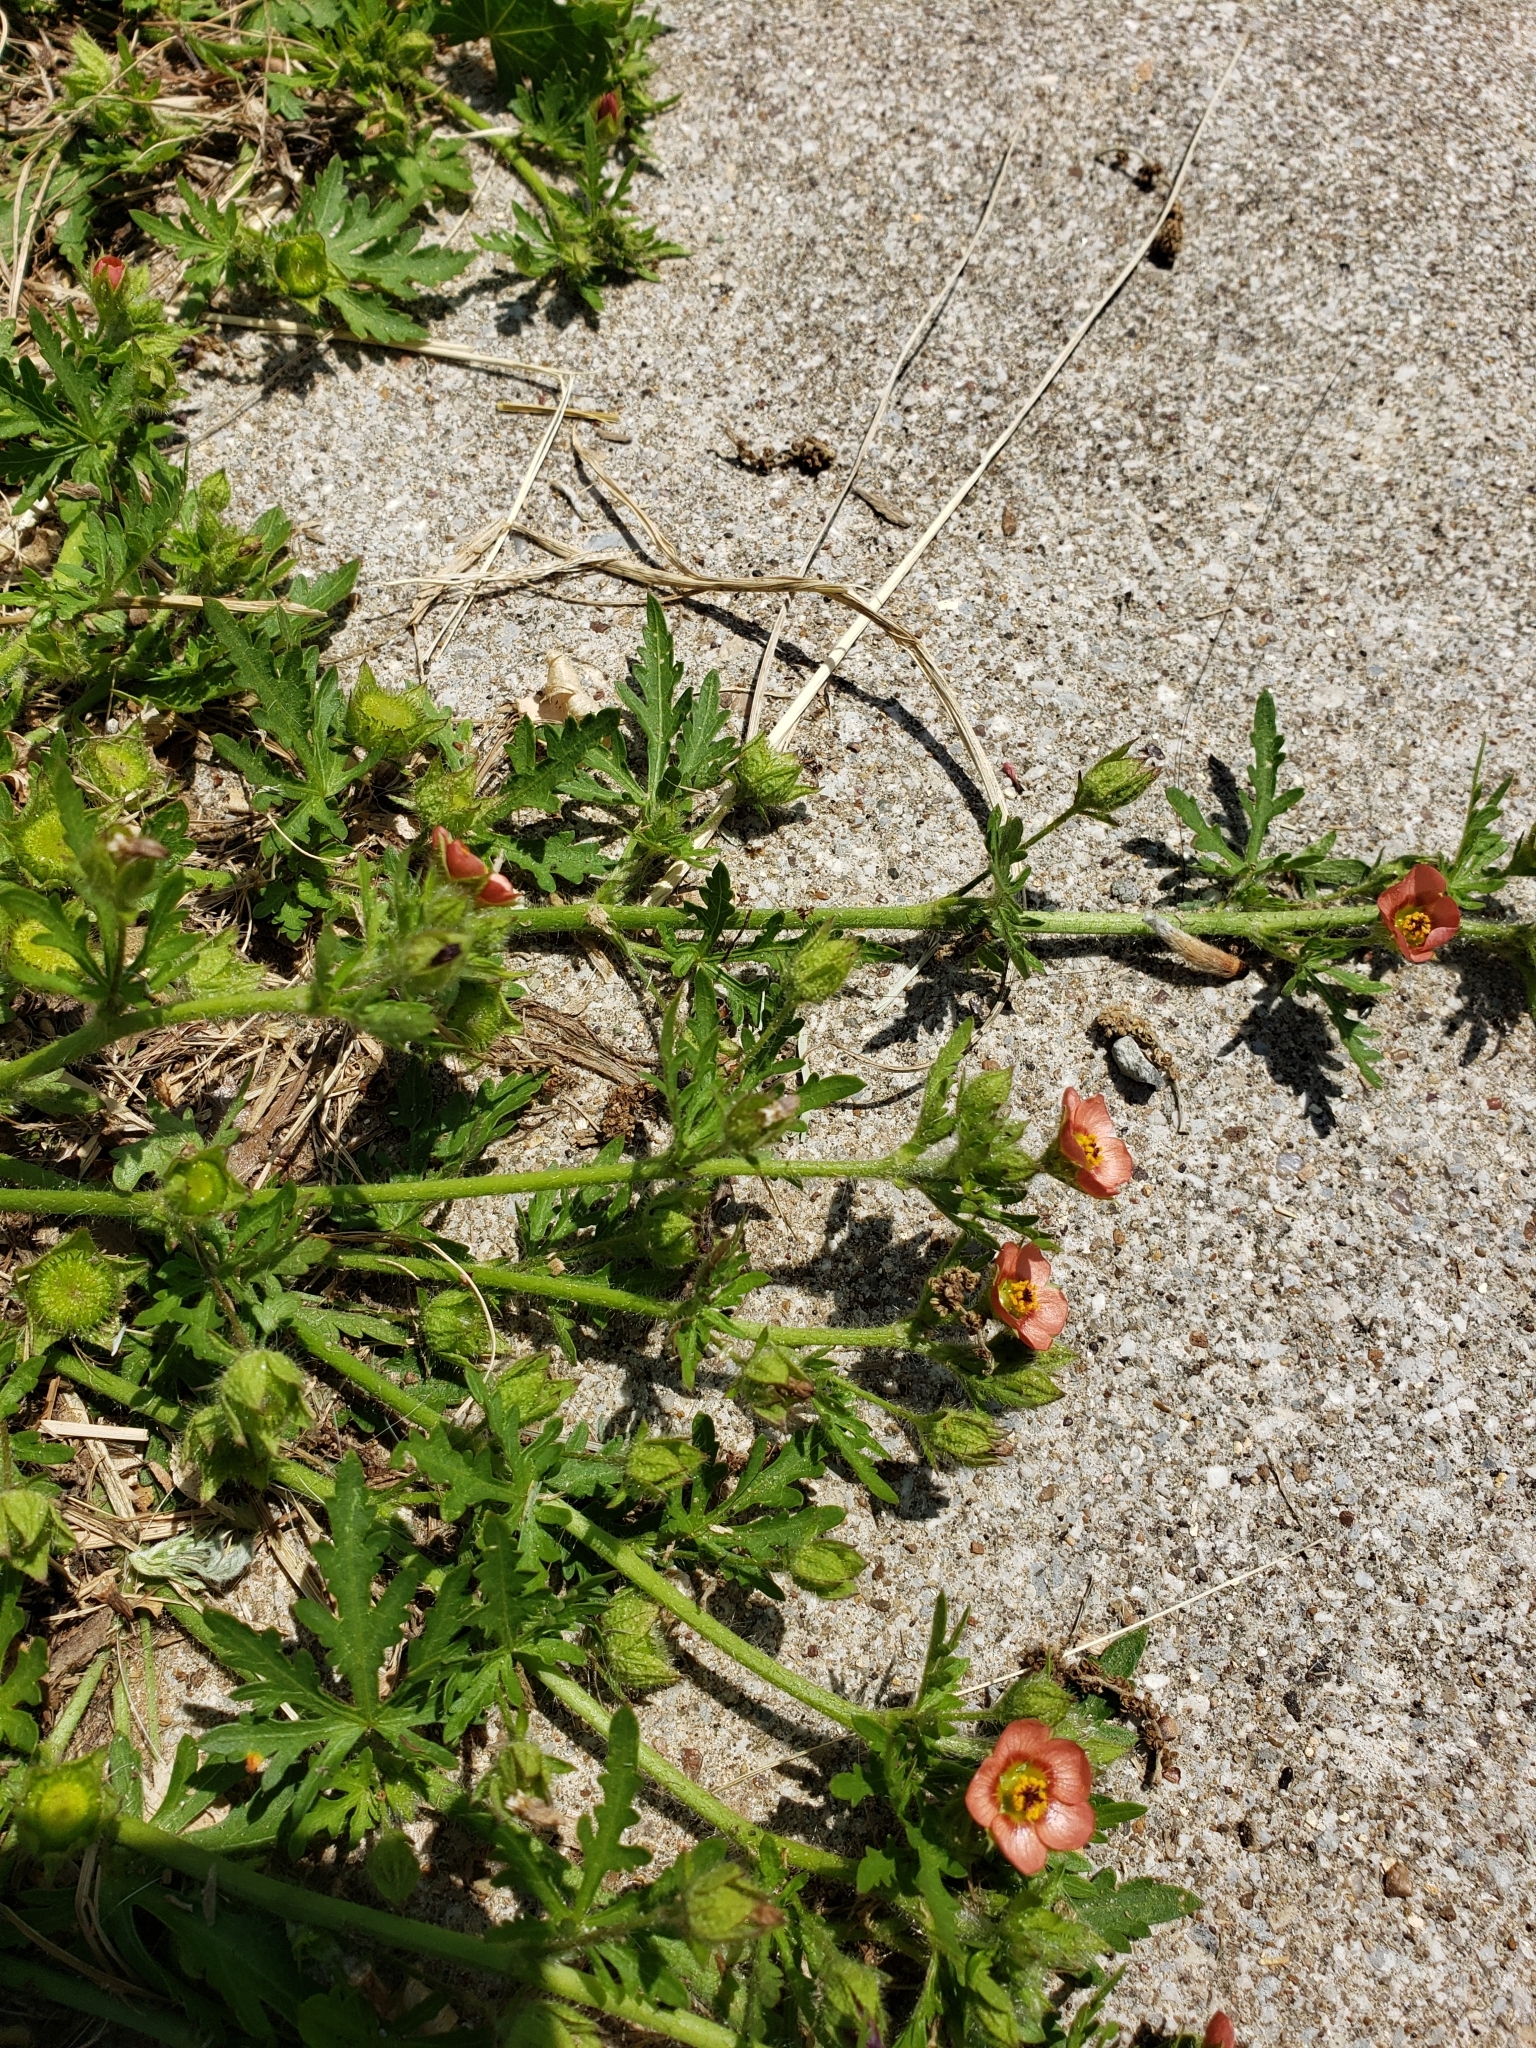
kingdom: Plantae
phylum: Tracheophyta
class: Magnoliopsida
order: Malvales
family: Malvaceae
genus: Modiola
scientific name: Modiola caroliniana
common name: Carolina bristlemallow
